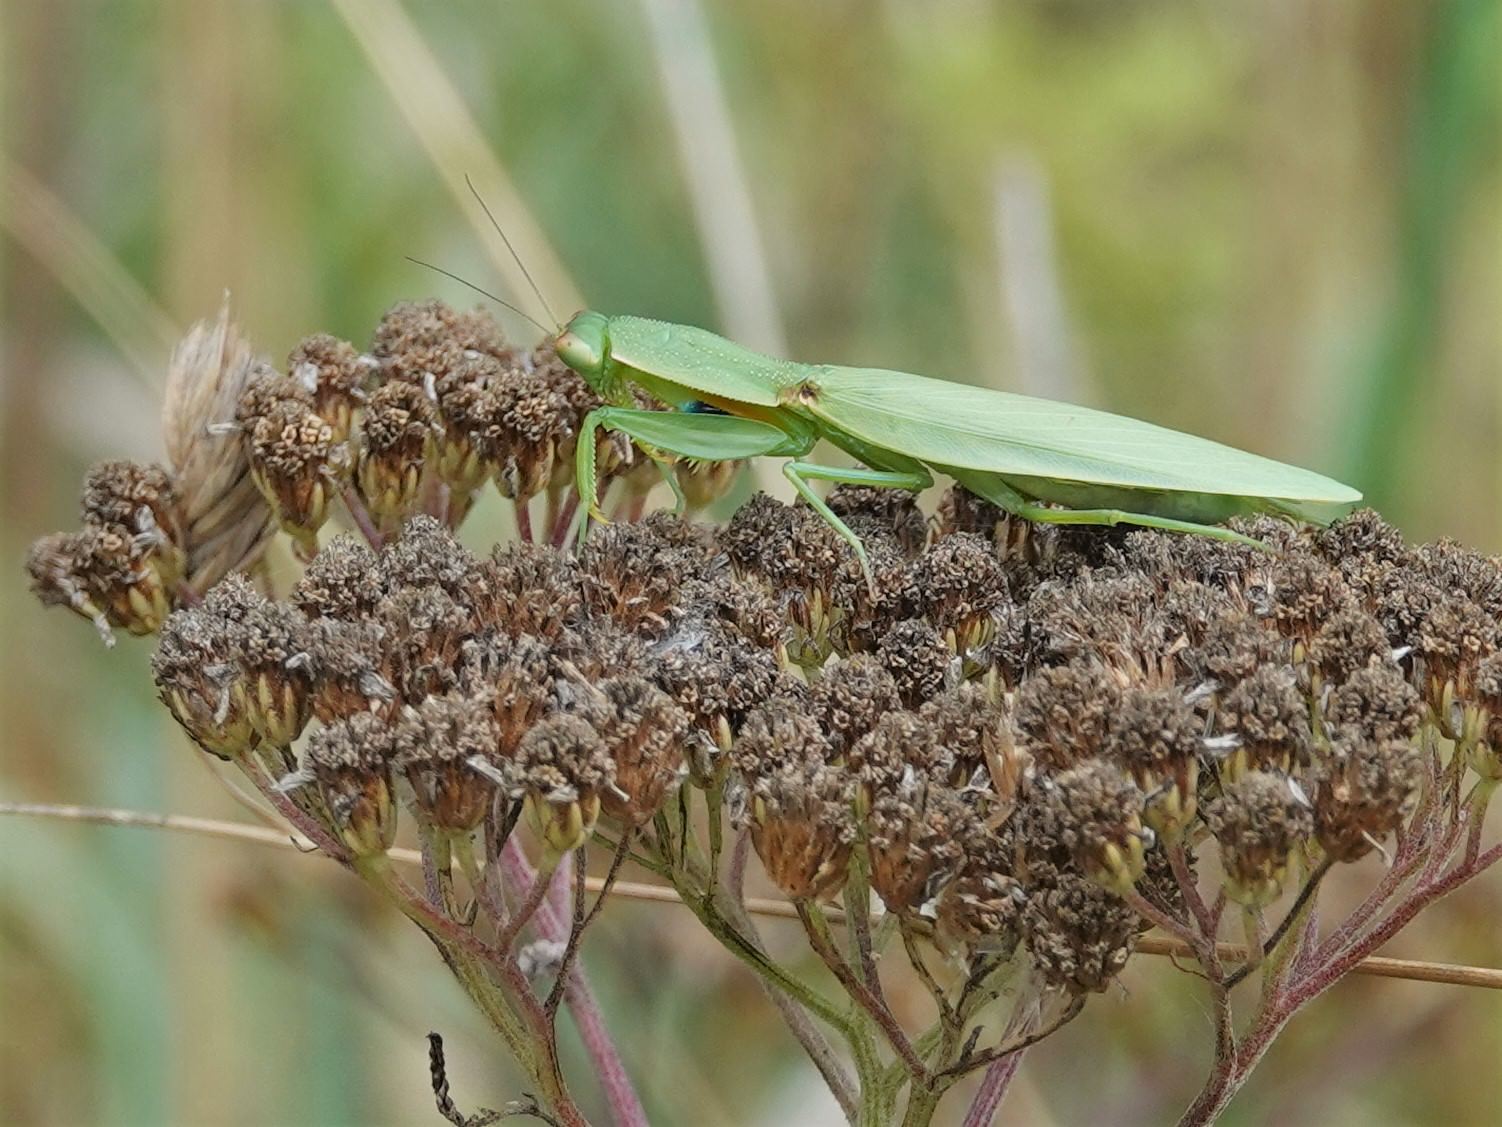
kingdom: Animalia
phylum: Arthropoda
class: Insecta
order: Mantodea
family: Mantidae
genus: Orthodera
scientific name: Orthodera novaezealandiae
